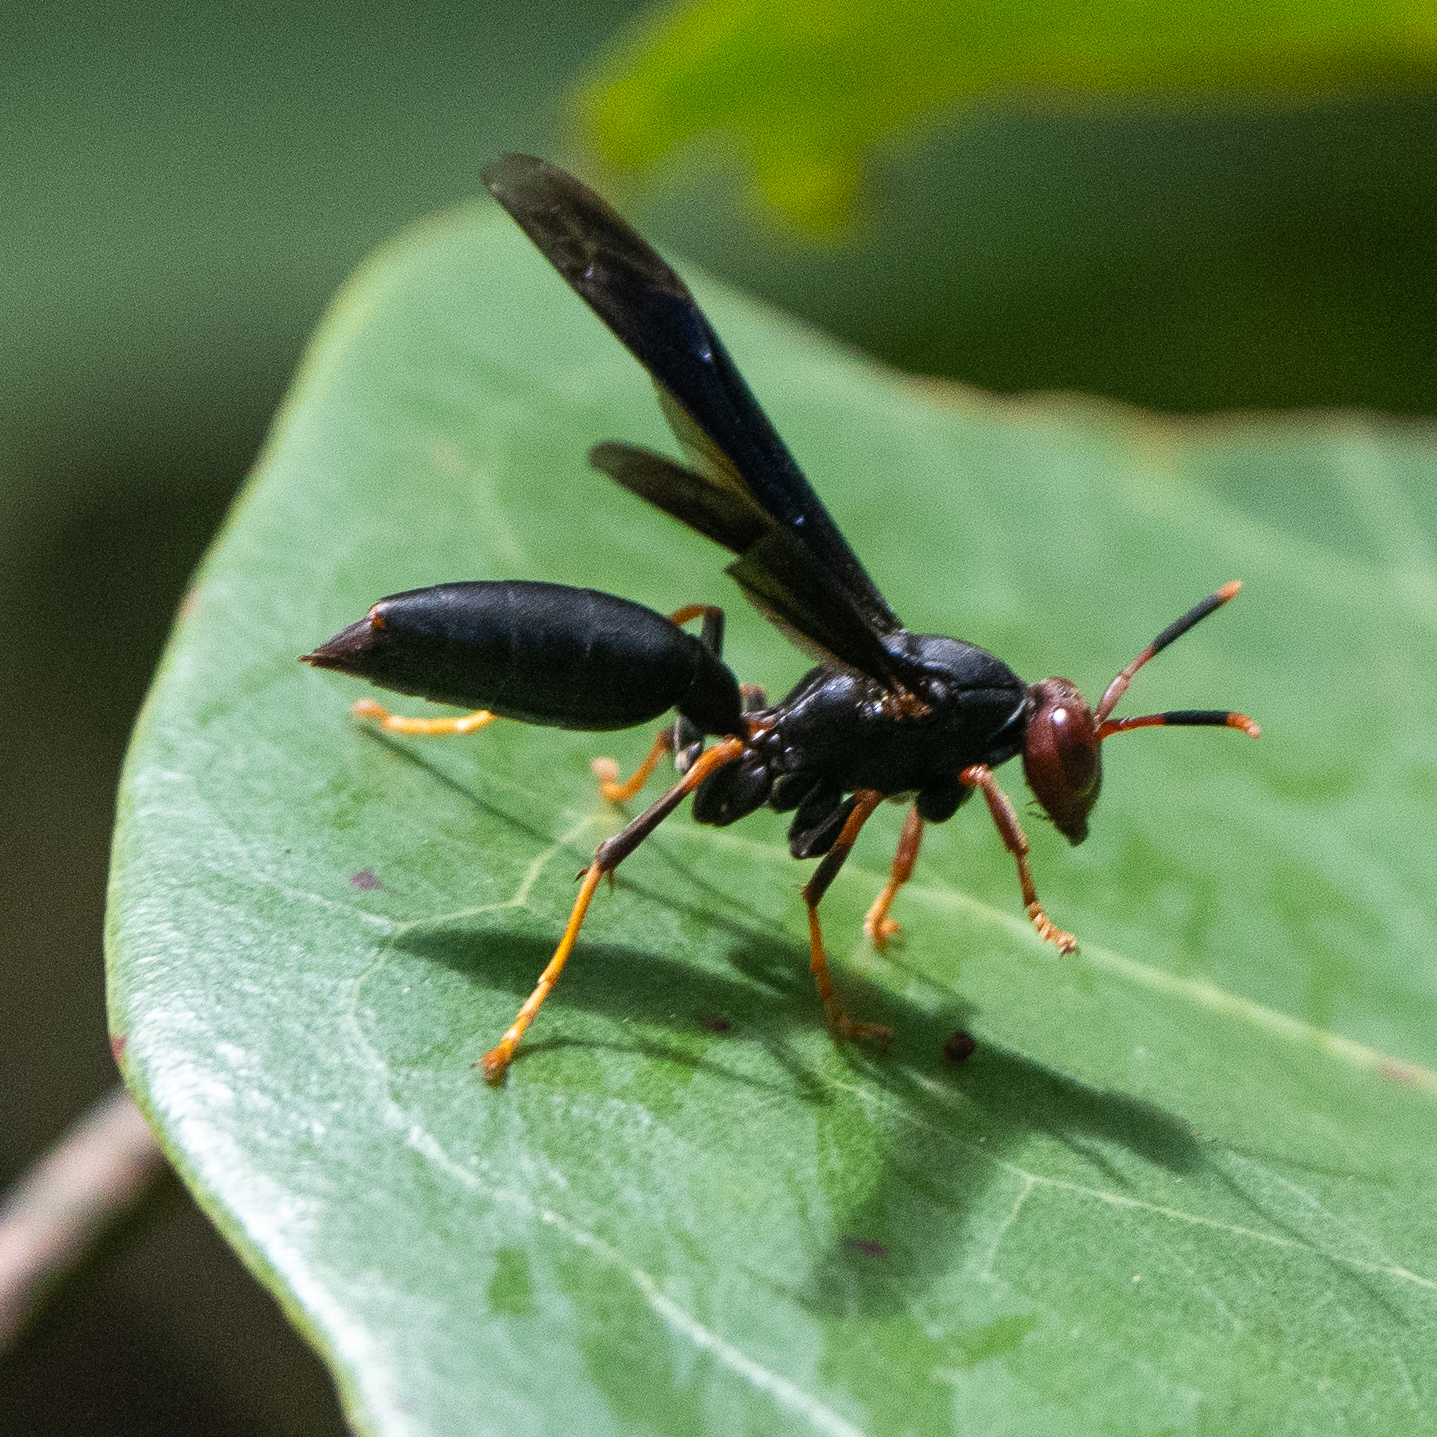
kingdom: Animalia
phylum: Arthropoda
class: Insecta
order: Hymenoptera
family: Eumenidae
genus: Polistes
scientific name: Polistes erythrocephalus
